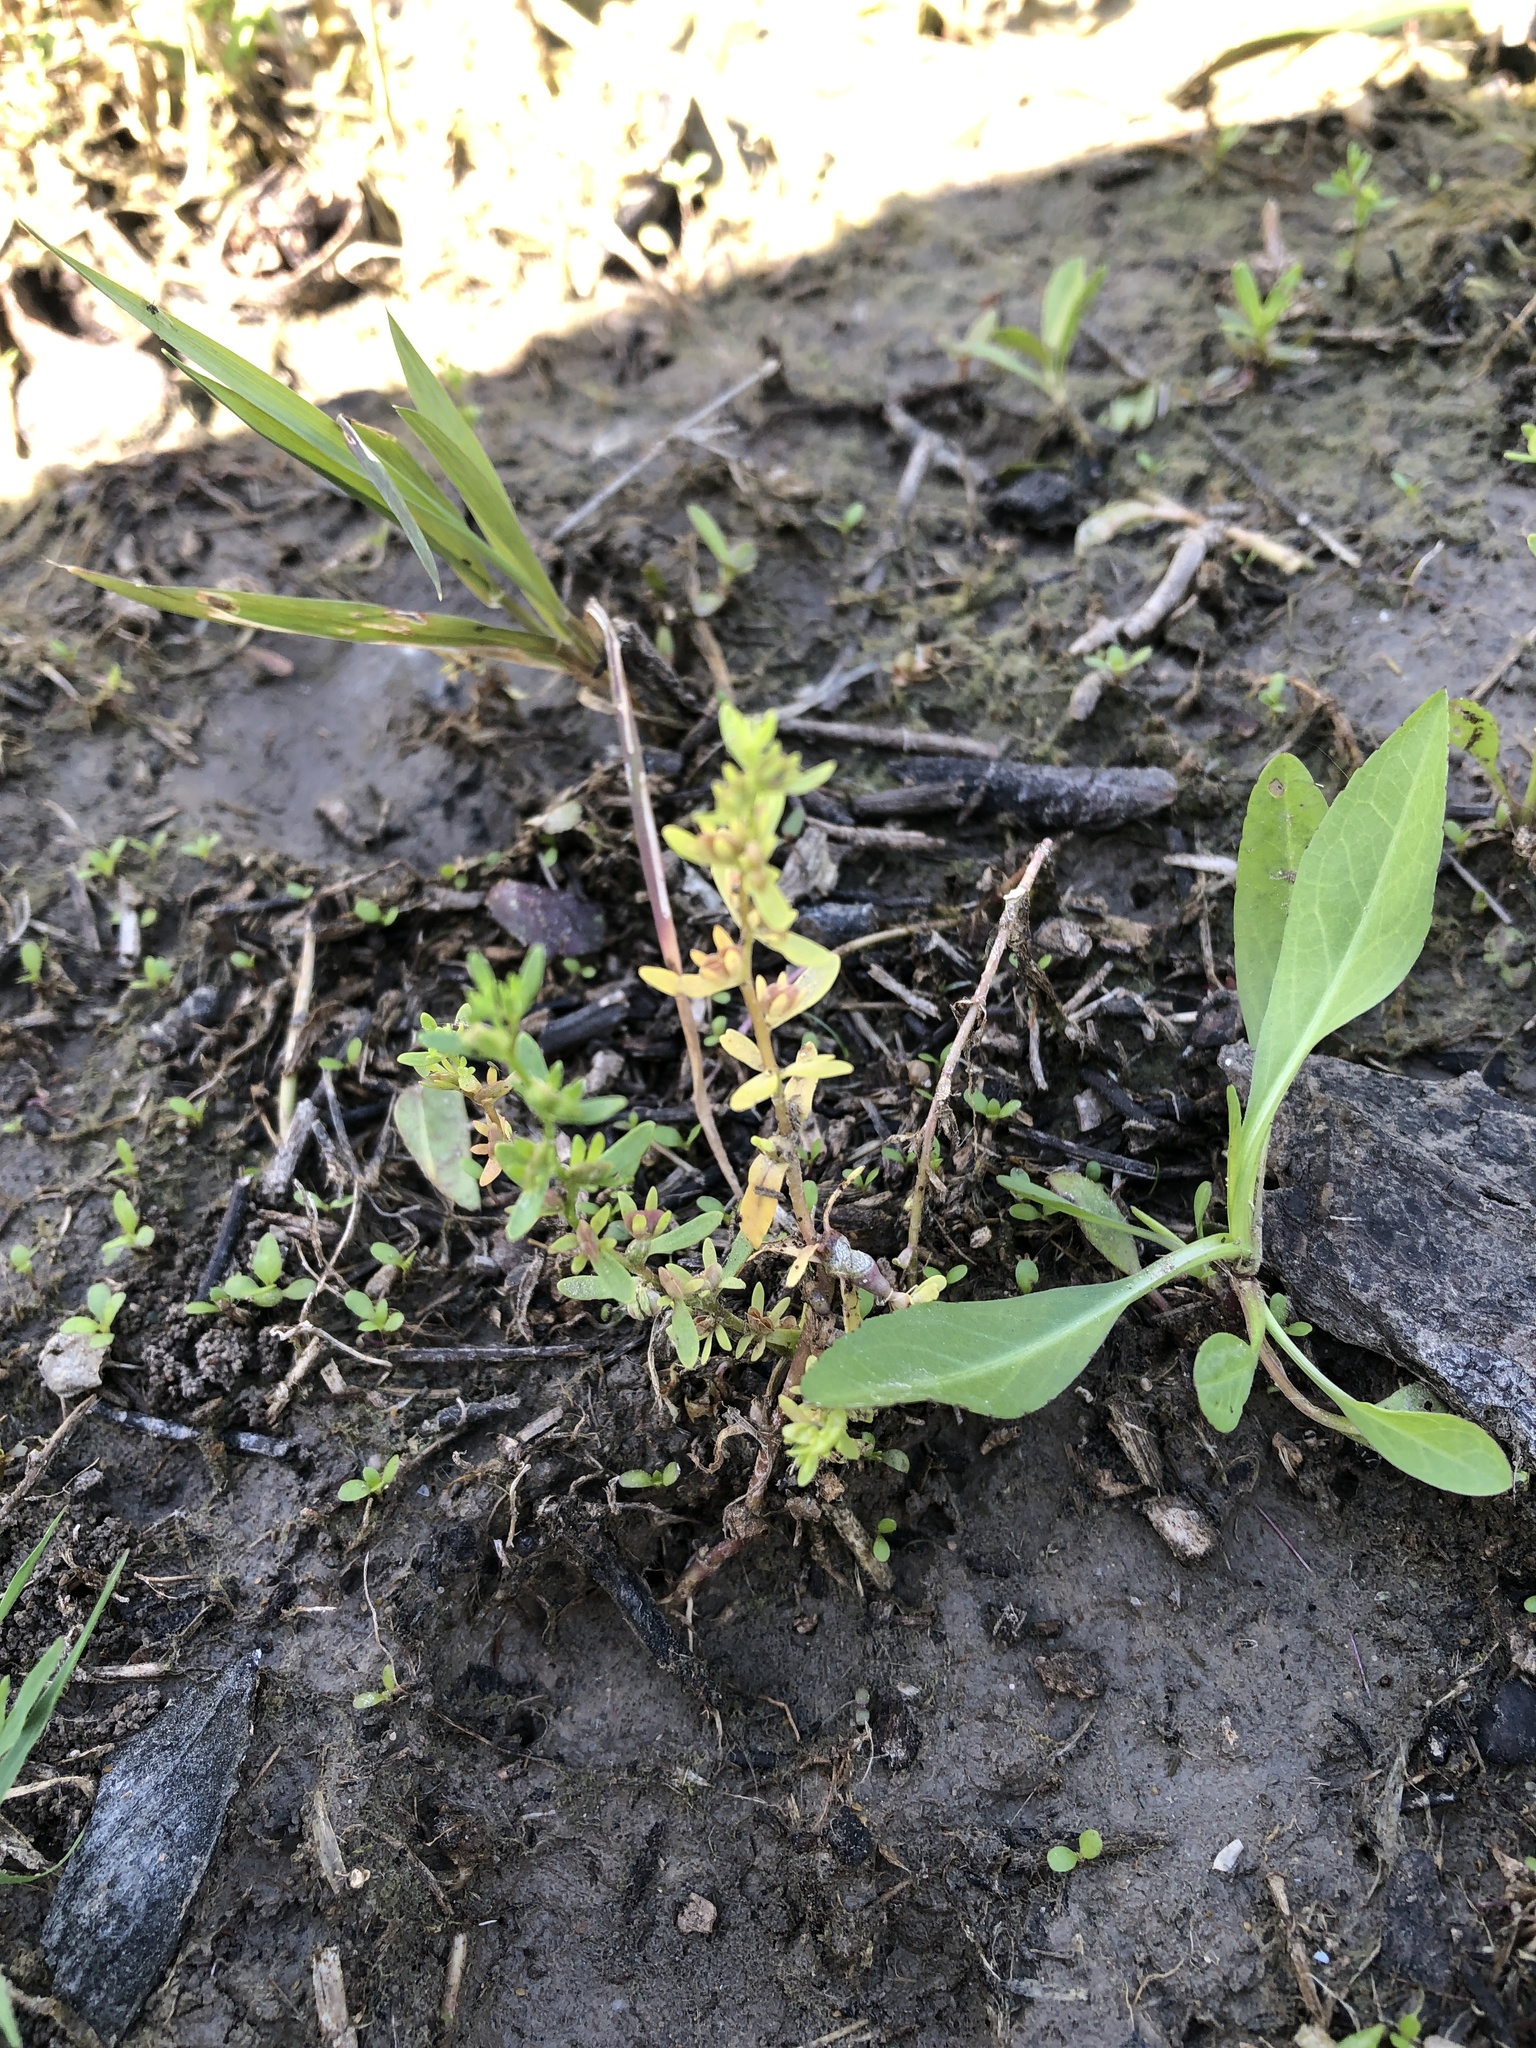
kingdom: Plantae
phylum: Tracheophyta
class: Magnoliopsida
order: Lamiales
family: Plantaginaceae
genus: Veronica
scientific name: Veronica peregrina
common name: Neckweed
